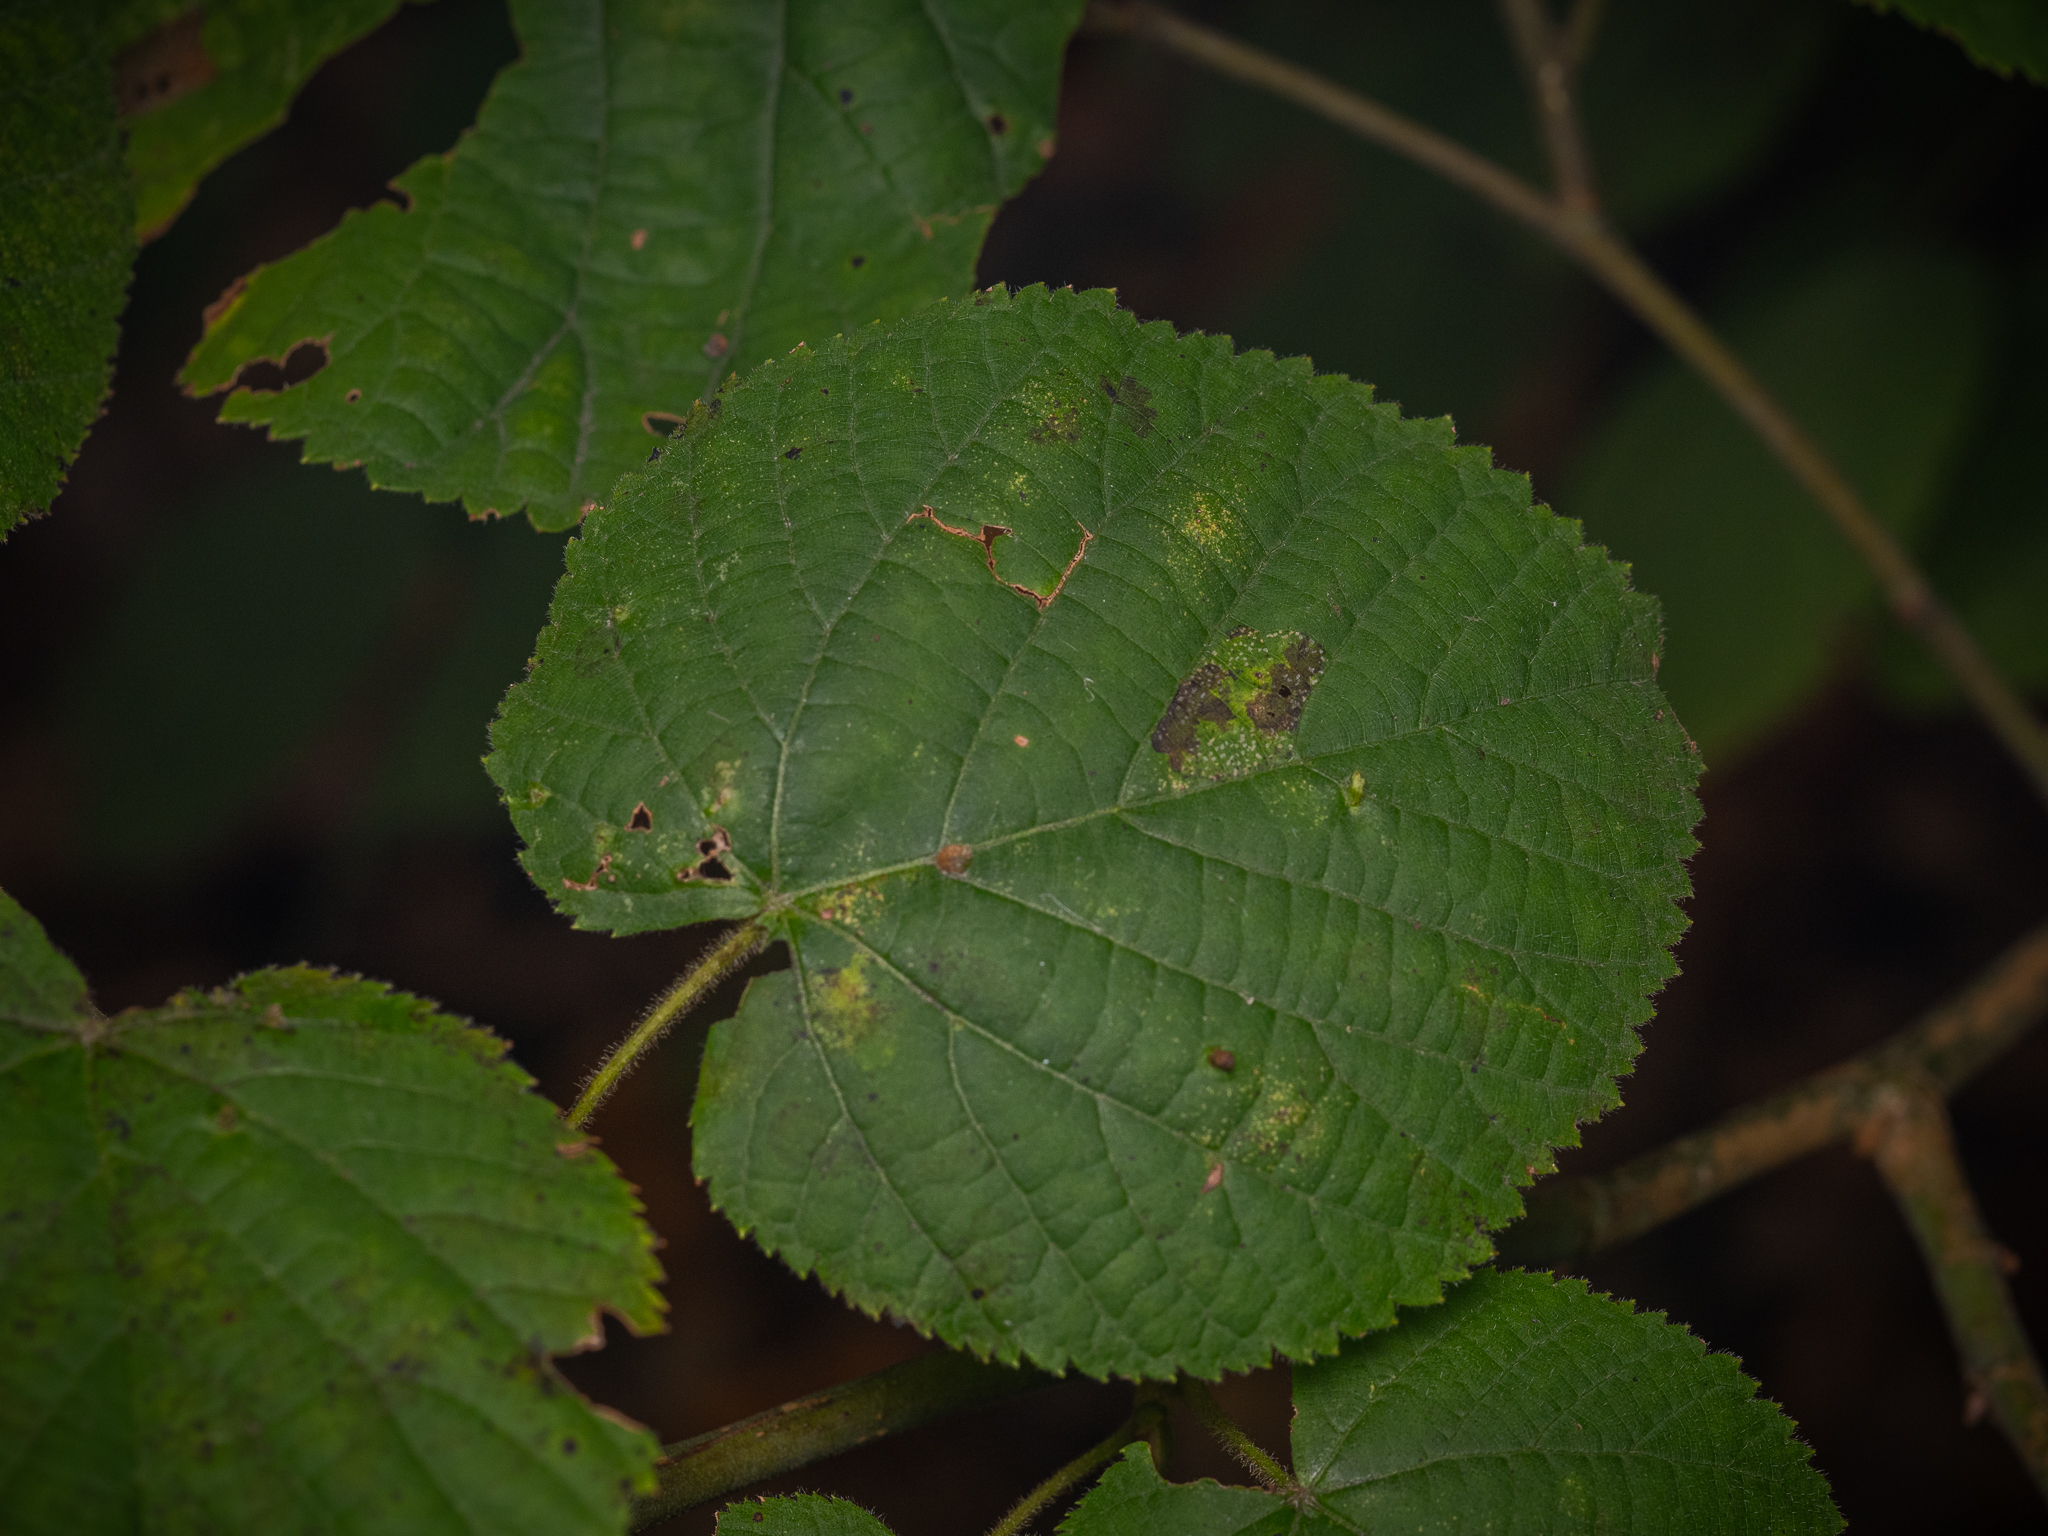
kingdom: Plantae
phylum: Tracheophyta
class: Magnoliopsida
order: Malvales
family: Malvaceae
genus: Tilia
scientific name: Tilia platyphyllos
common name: Large-leaved lime
